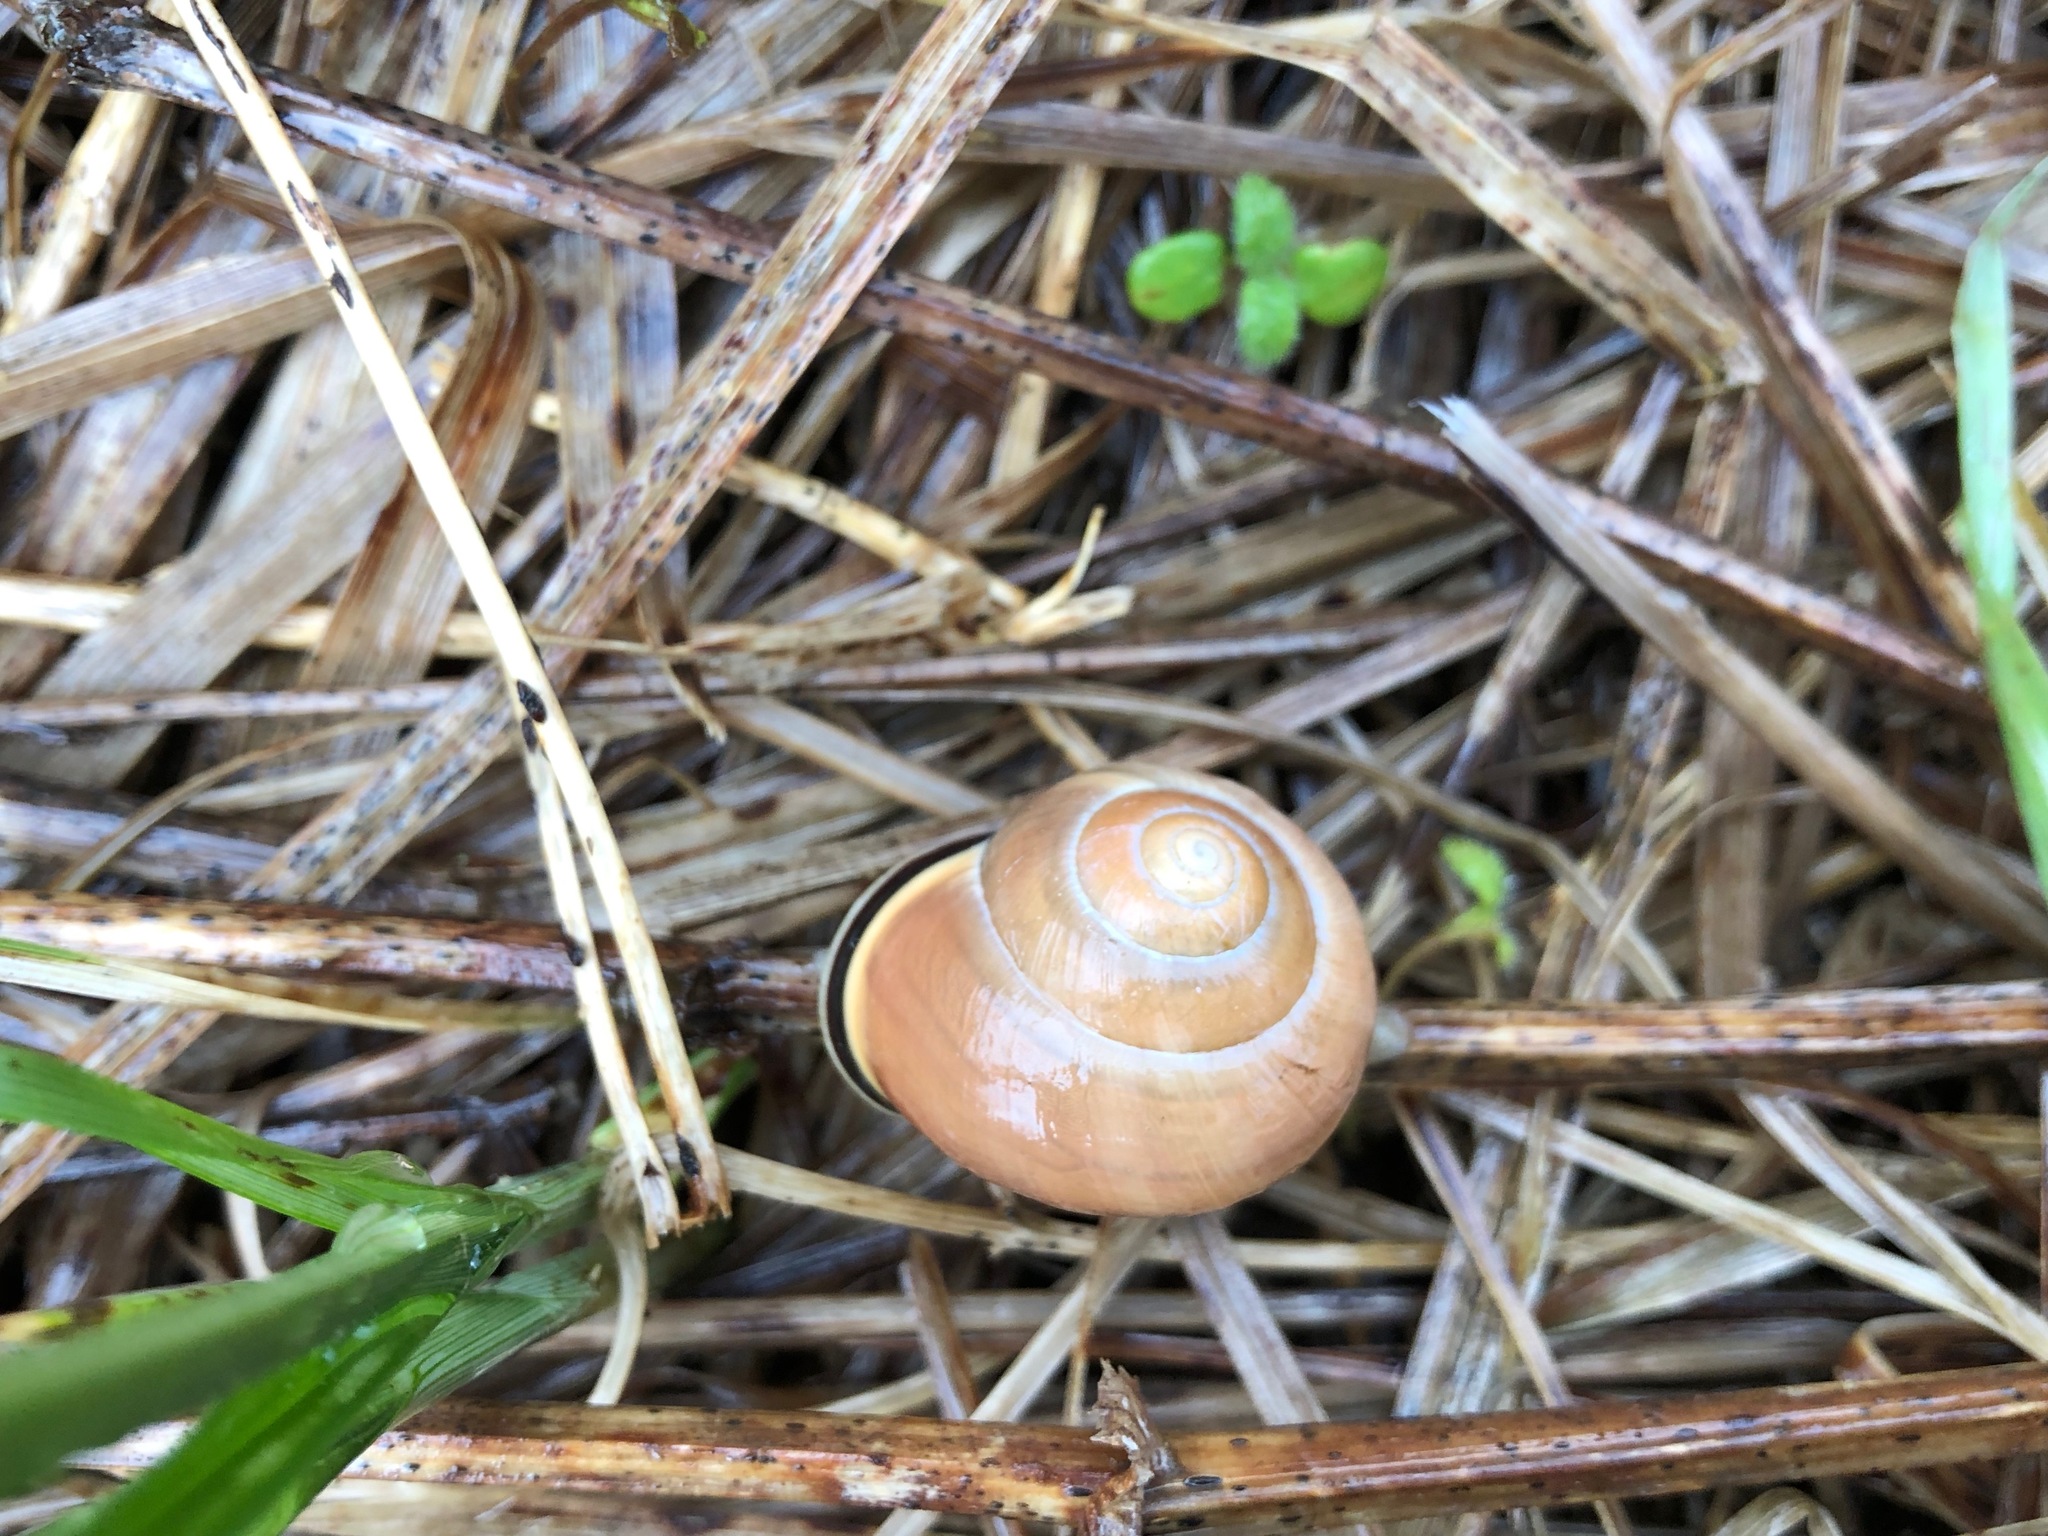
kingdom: Animalia
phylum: Mollusca
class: Gastropoda
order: Stylommatophora
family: Helicidae
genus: Cepaea
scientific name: Cepaea nemoralis
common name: Grovesnail
